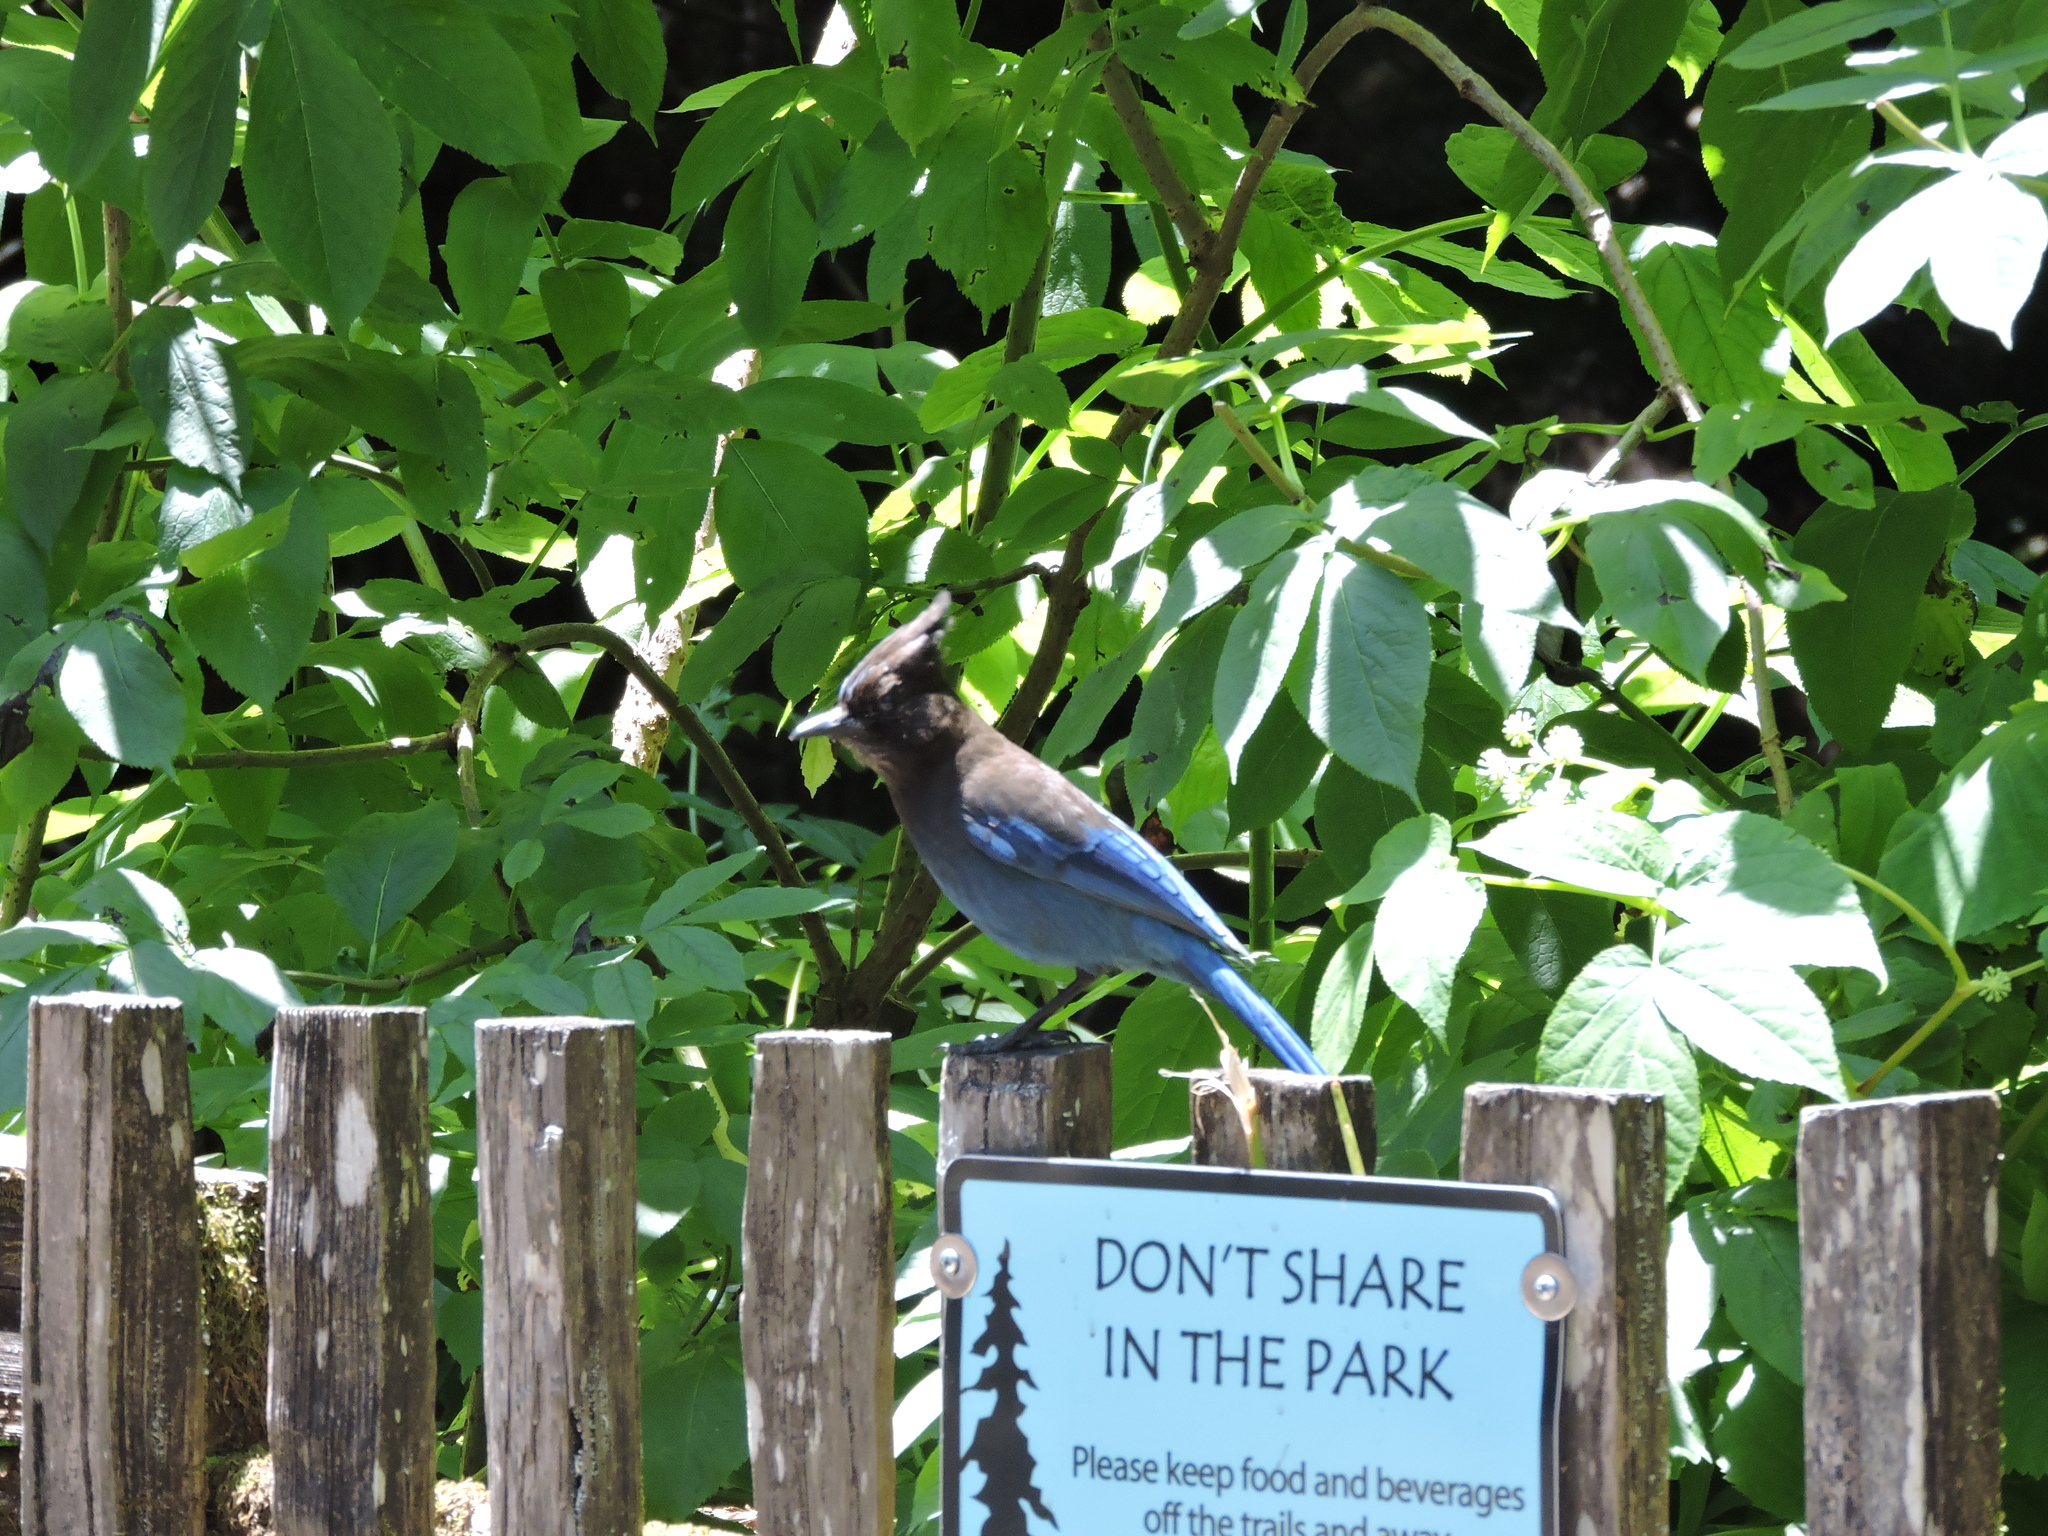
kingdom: Animalia
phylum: Chordata
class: Aves
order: Passeriformes
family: Corvidae
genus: Cyanocitta
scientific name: Cyanocitta stelleri
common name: Steller's jay
